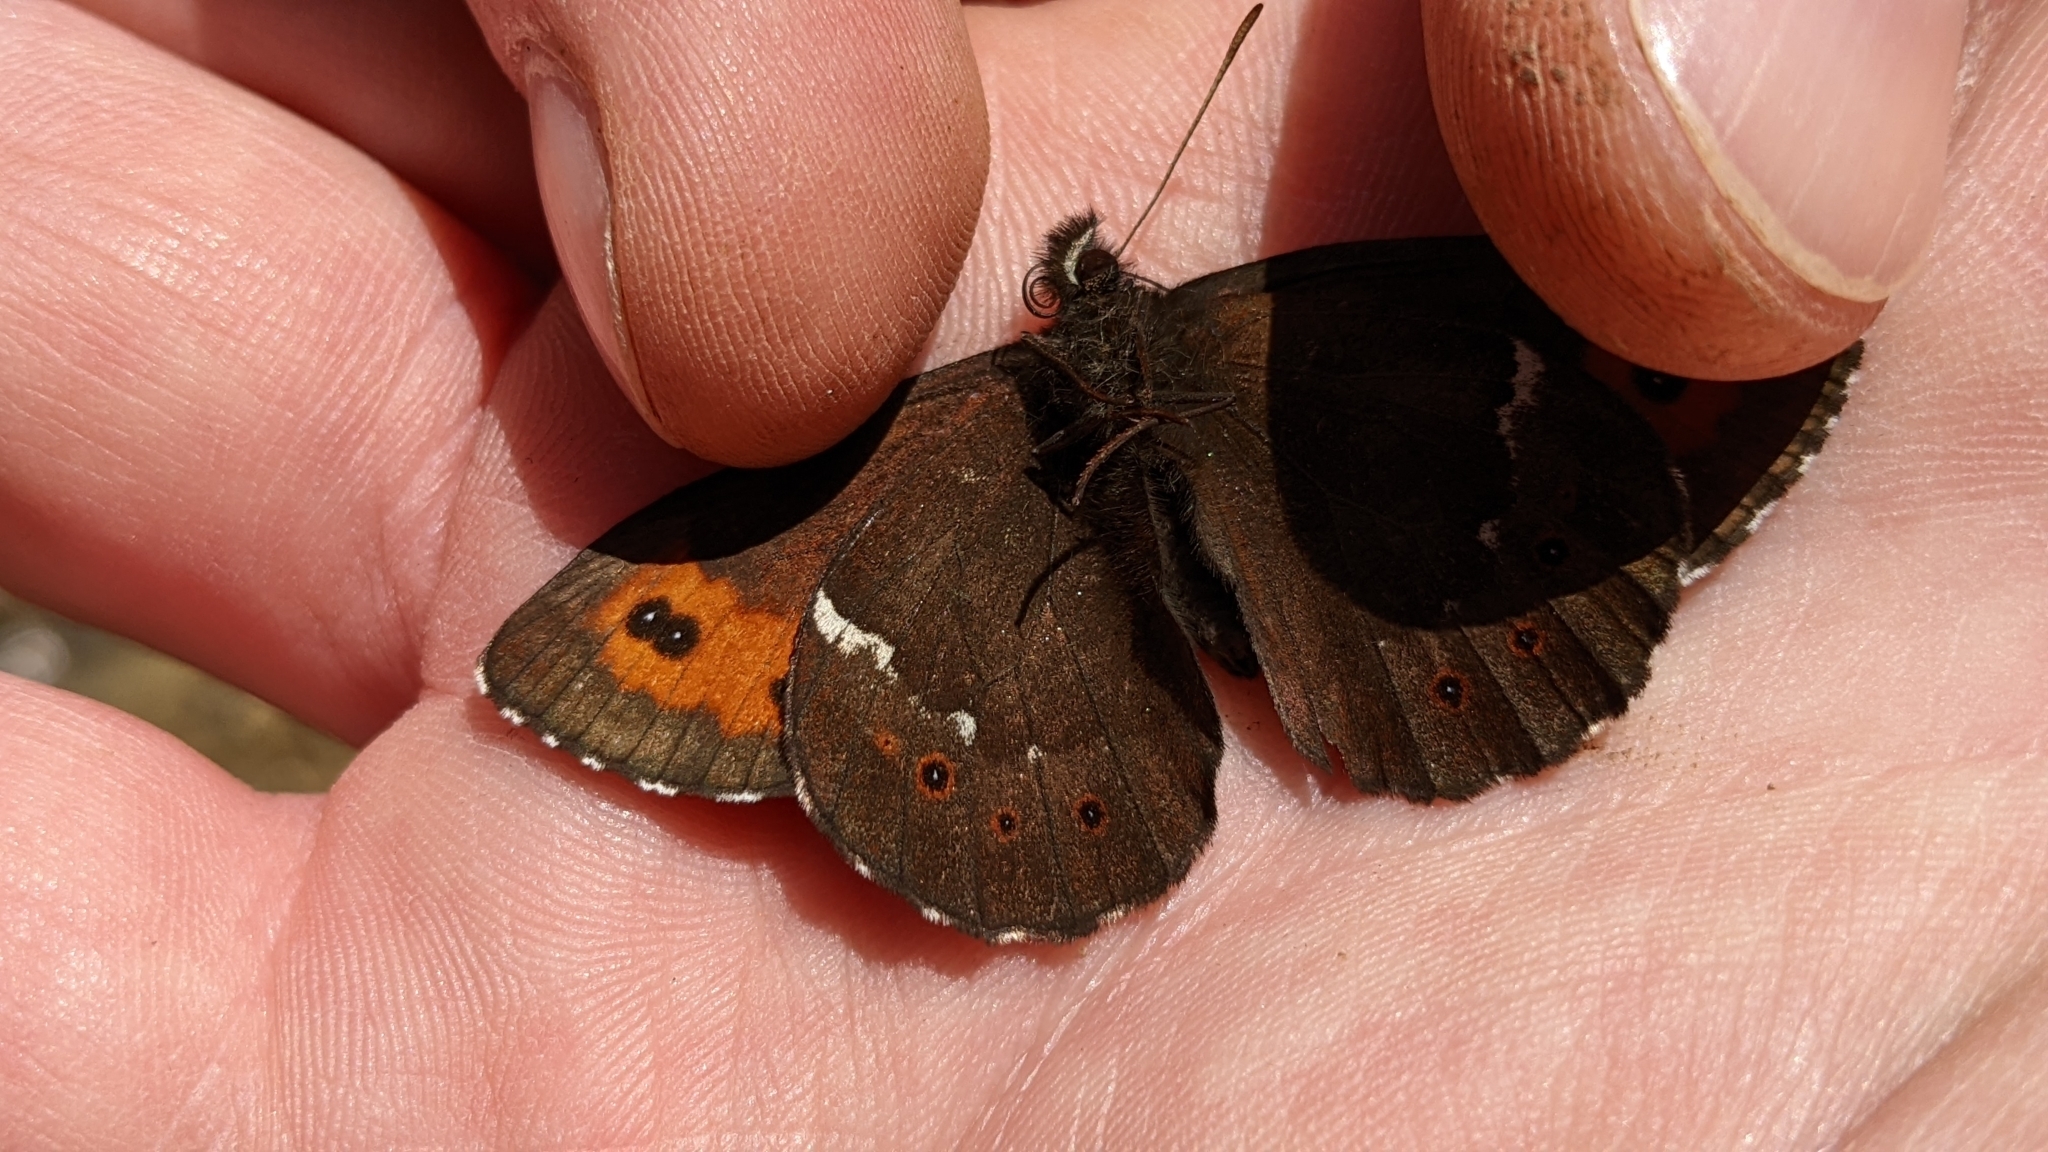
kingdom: Animalia
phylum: Arthropoda
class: Insecta
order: Lepidoptera
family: Nymphalidae
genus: Erebia
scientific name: Erebia ligea
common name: Arran brown
